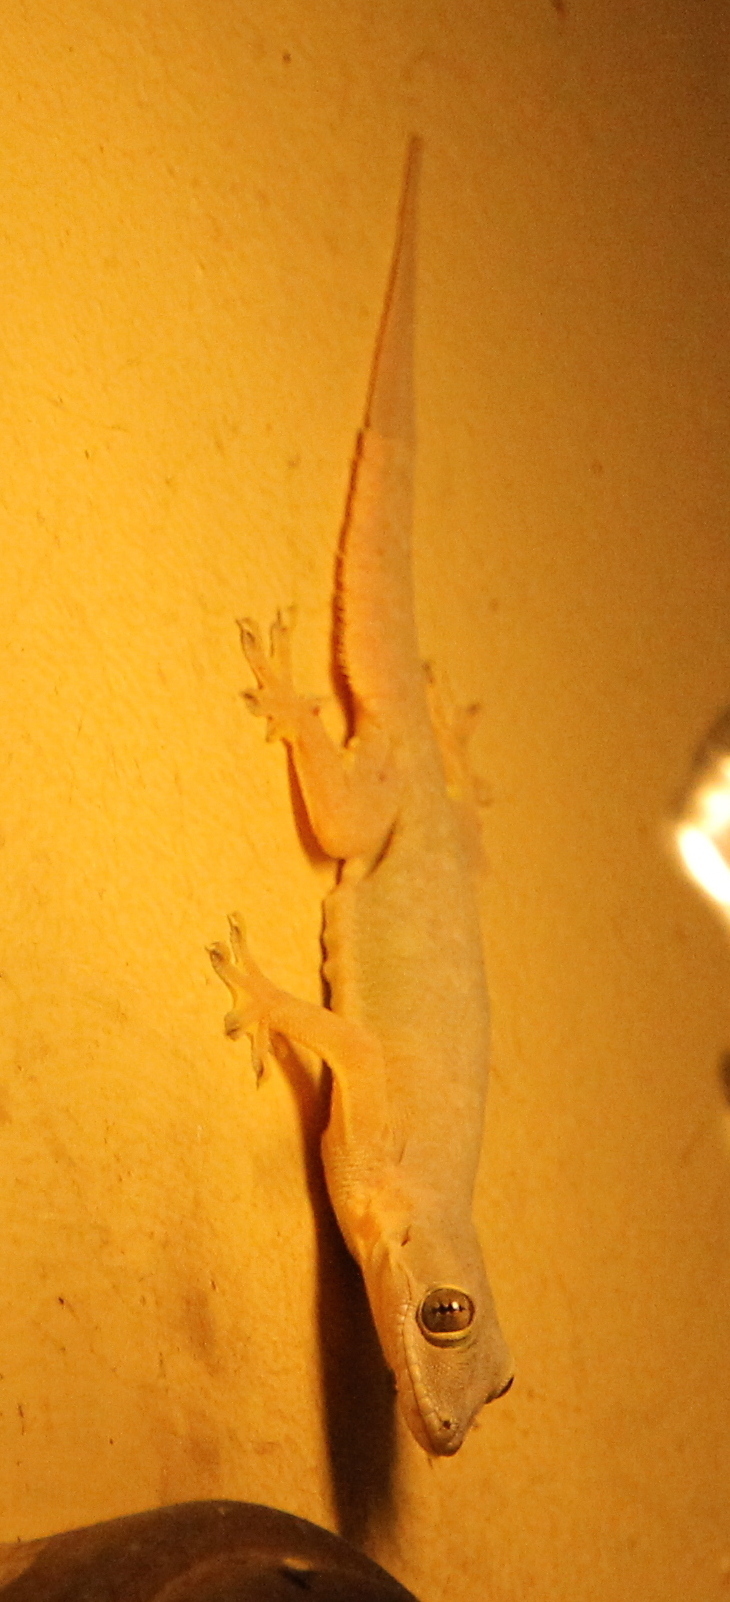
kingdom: Animalia
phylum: Chordata
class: Squamata
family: Gekkonidae
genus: Hemidactylus
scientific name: Hemidactylus platyurus
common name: Flat-tailed house gecko
